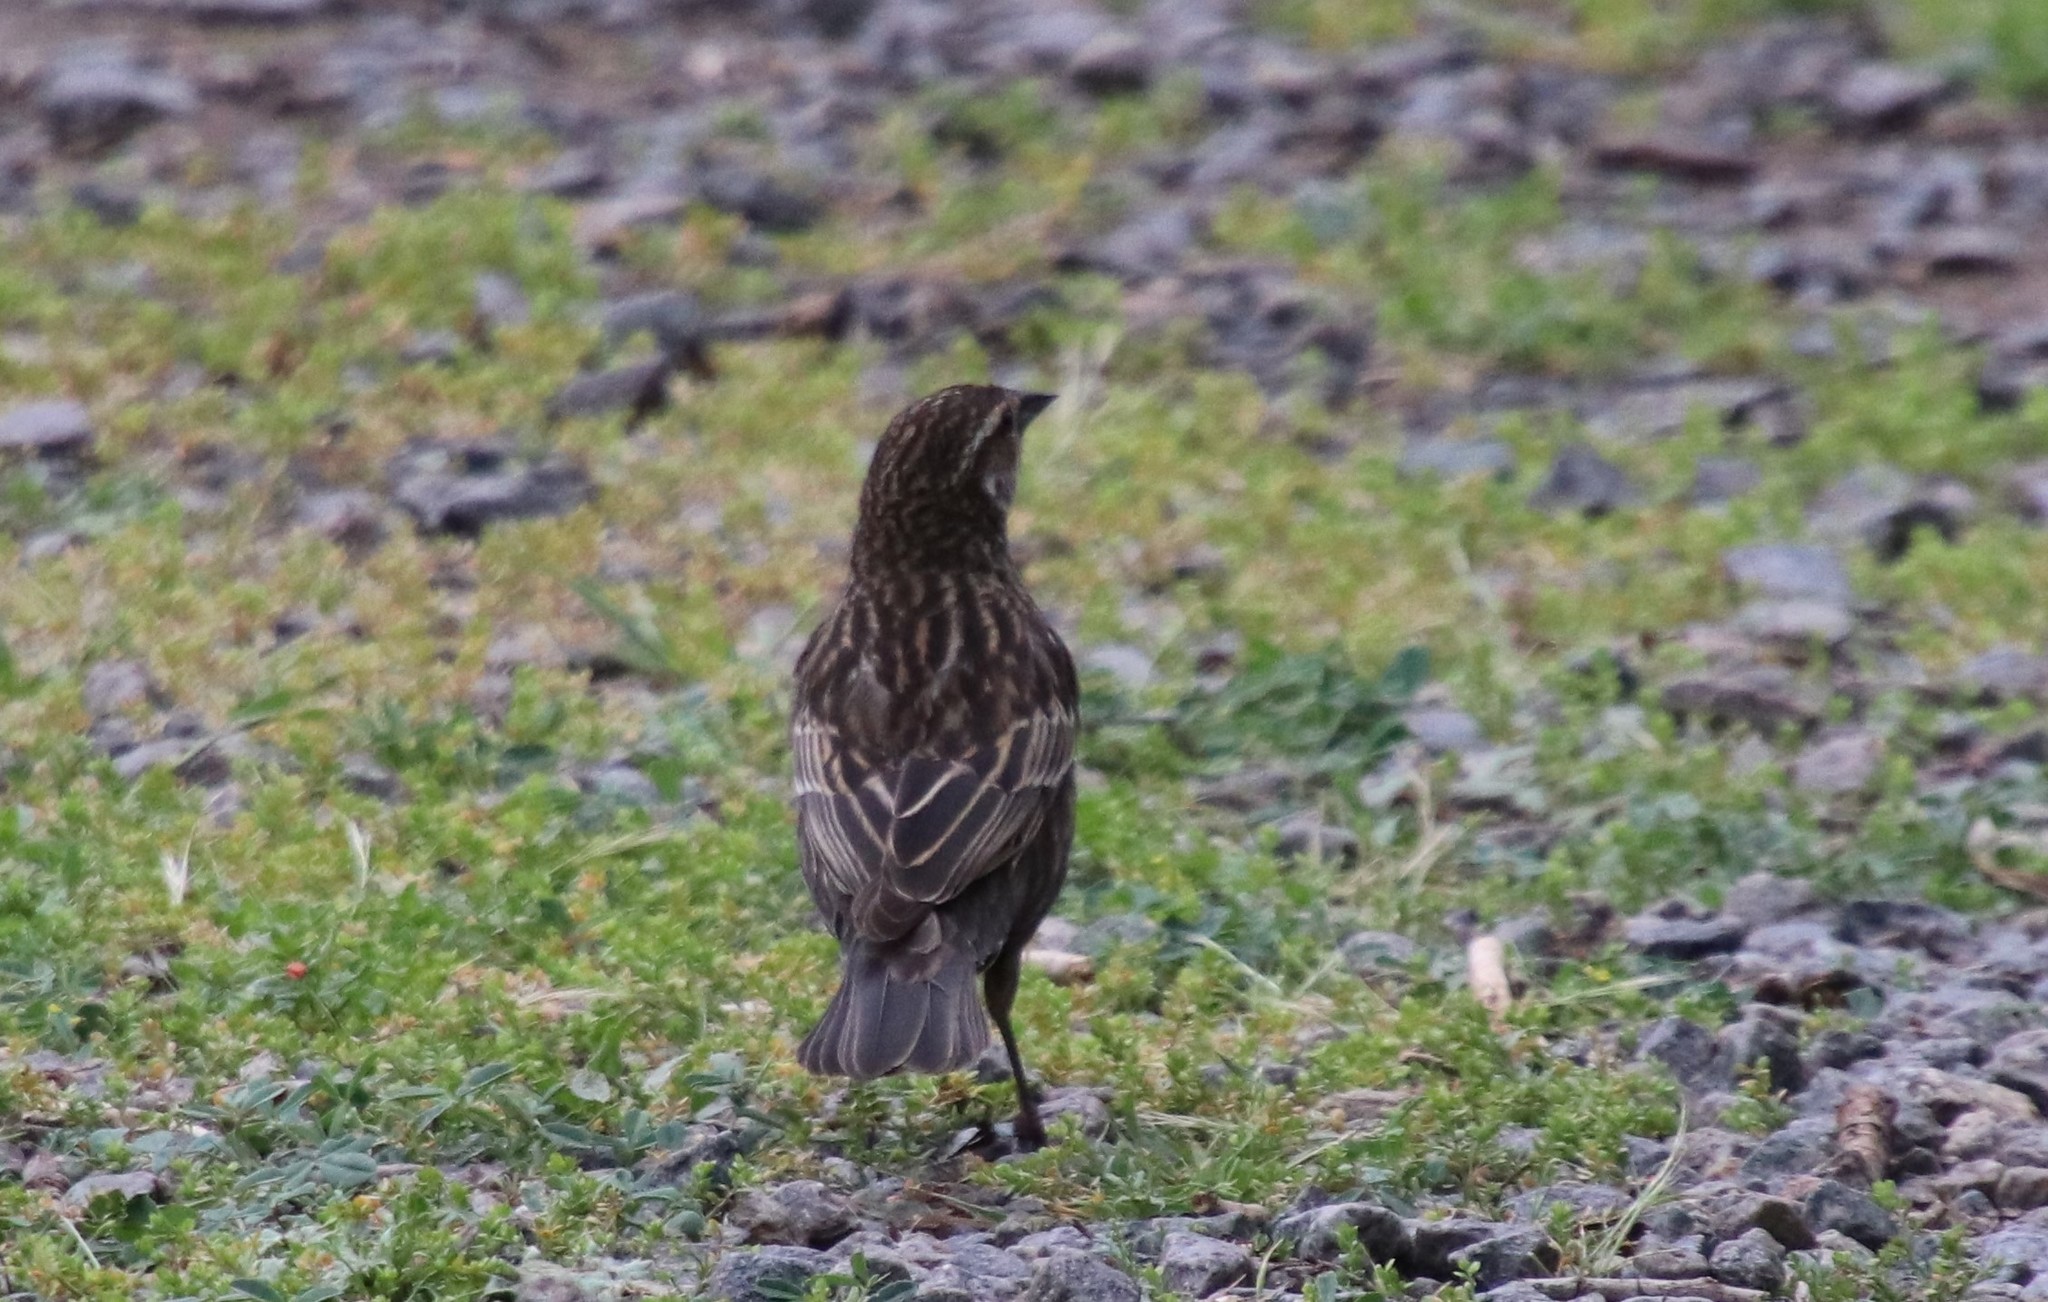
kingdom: Animalia
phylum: Chordata
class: Aves
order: Passeriformes
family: Icteridae
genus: Agelaius
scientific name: Agelaius phoeniceus
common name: Red-winged blackbird
